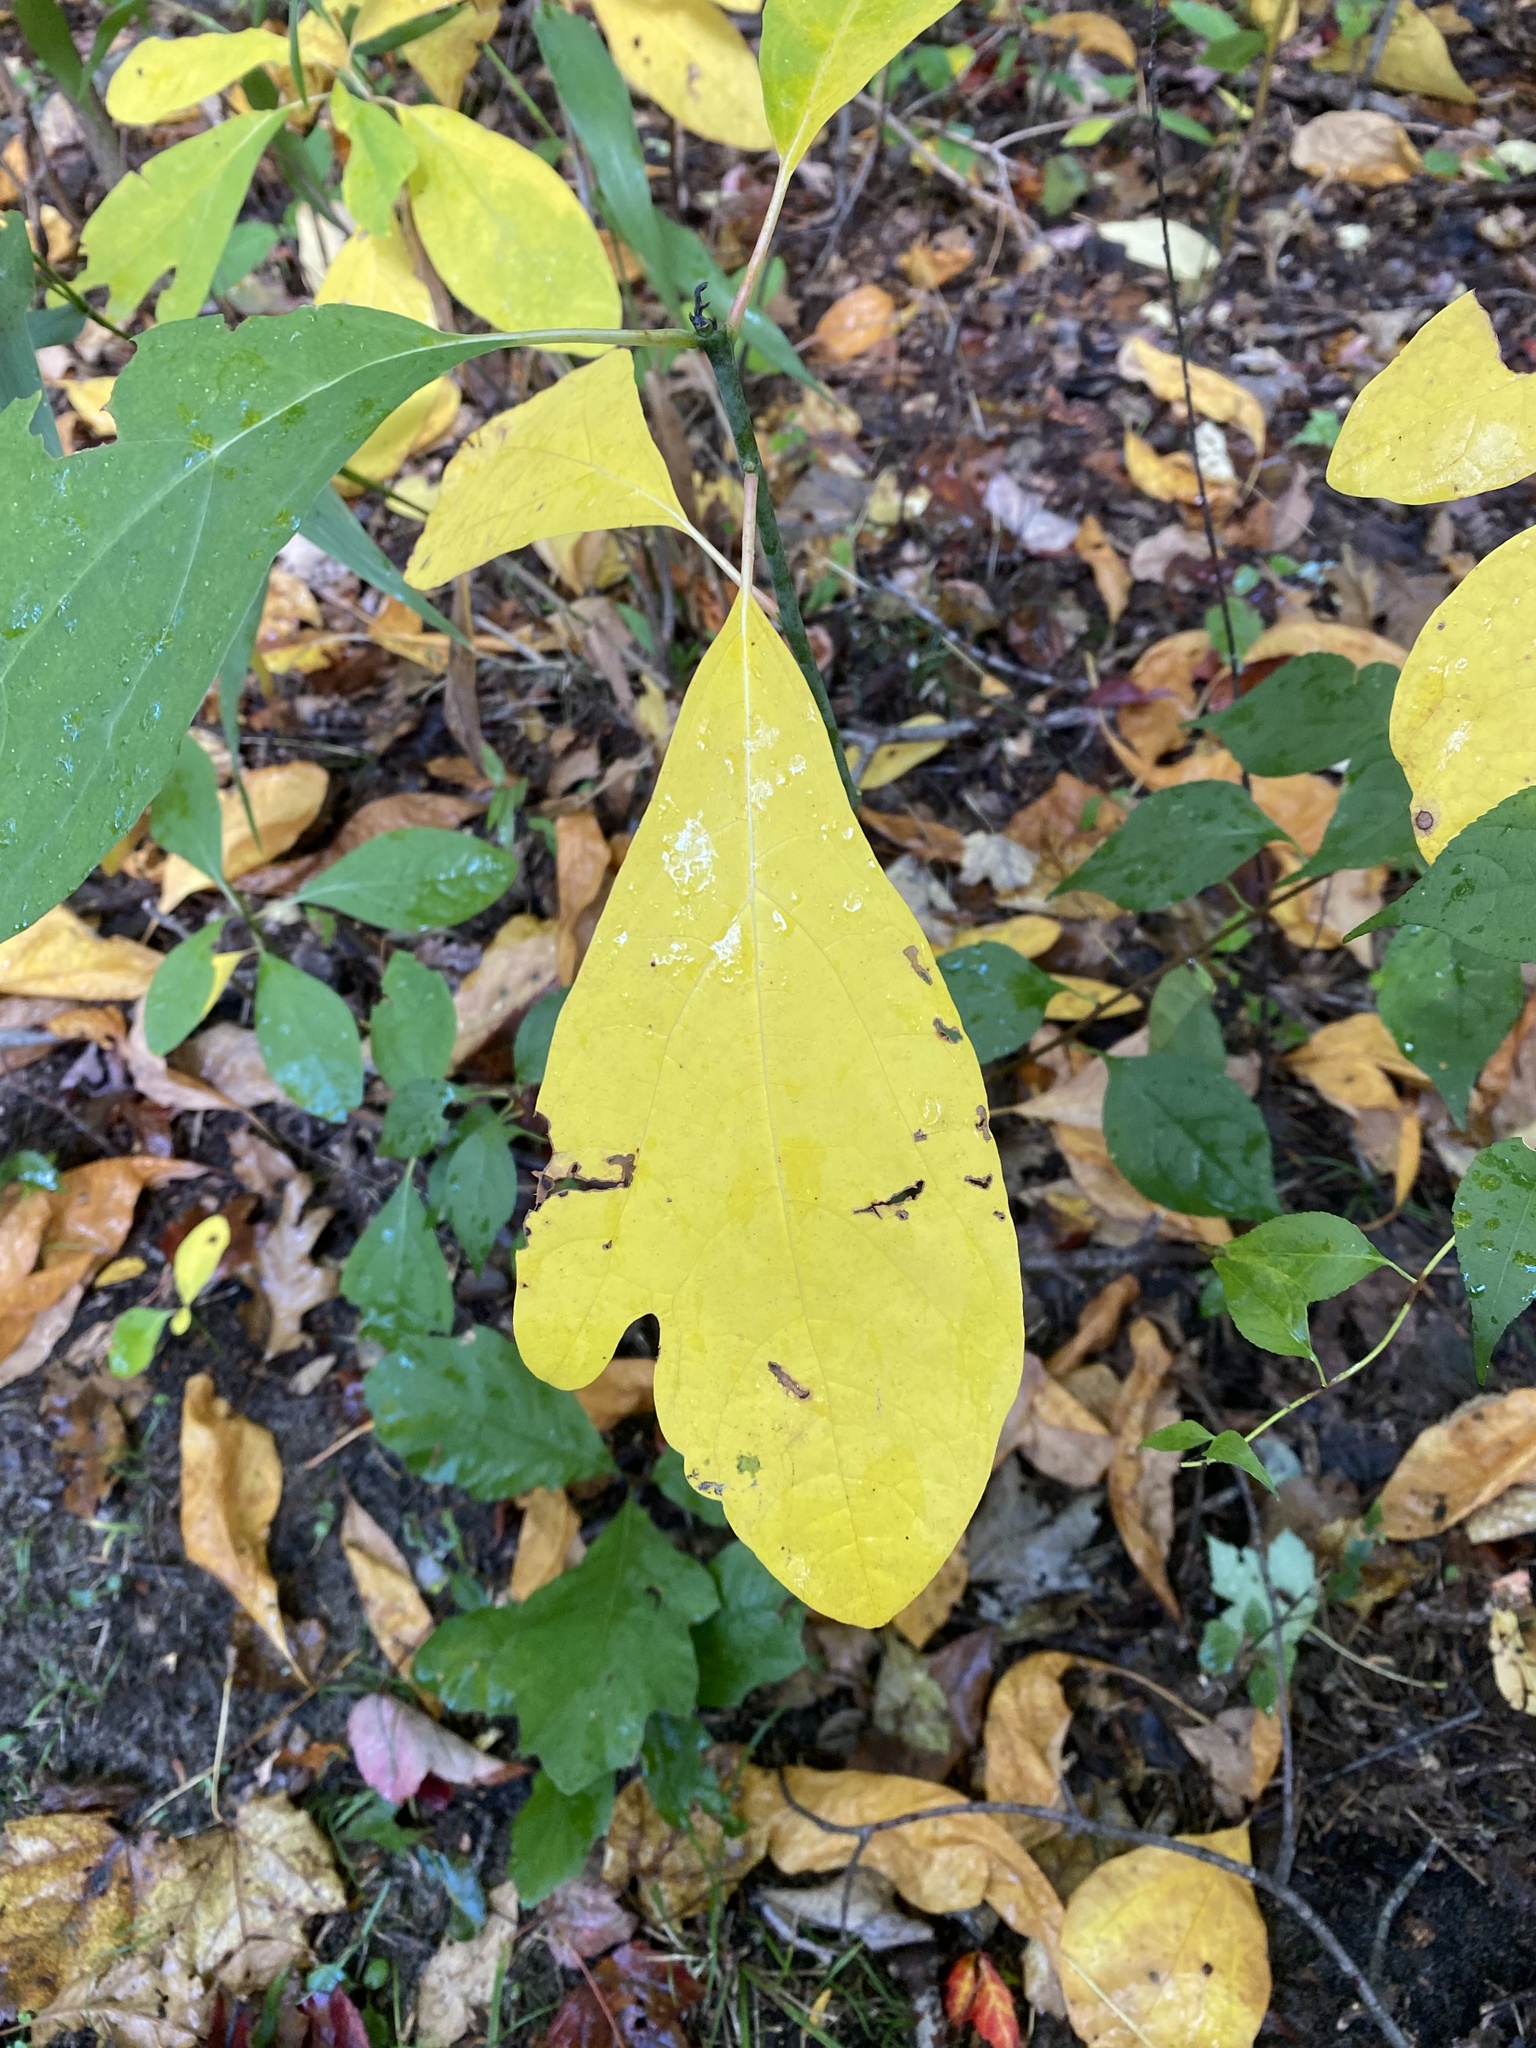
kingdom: Plantae
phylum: Tracheophyta
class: Magnoliopsida
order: Laurales
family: Lauraceae
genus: Sassafras
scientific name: Sassafras albidum
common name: Sassafras
